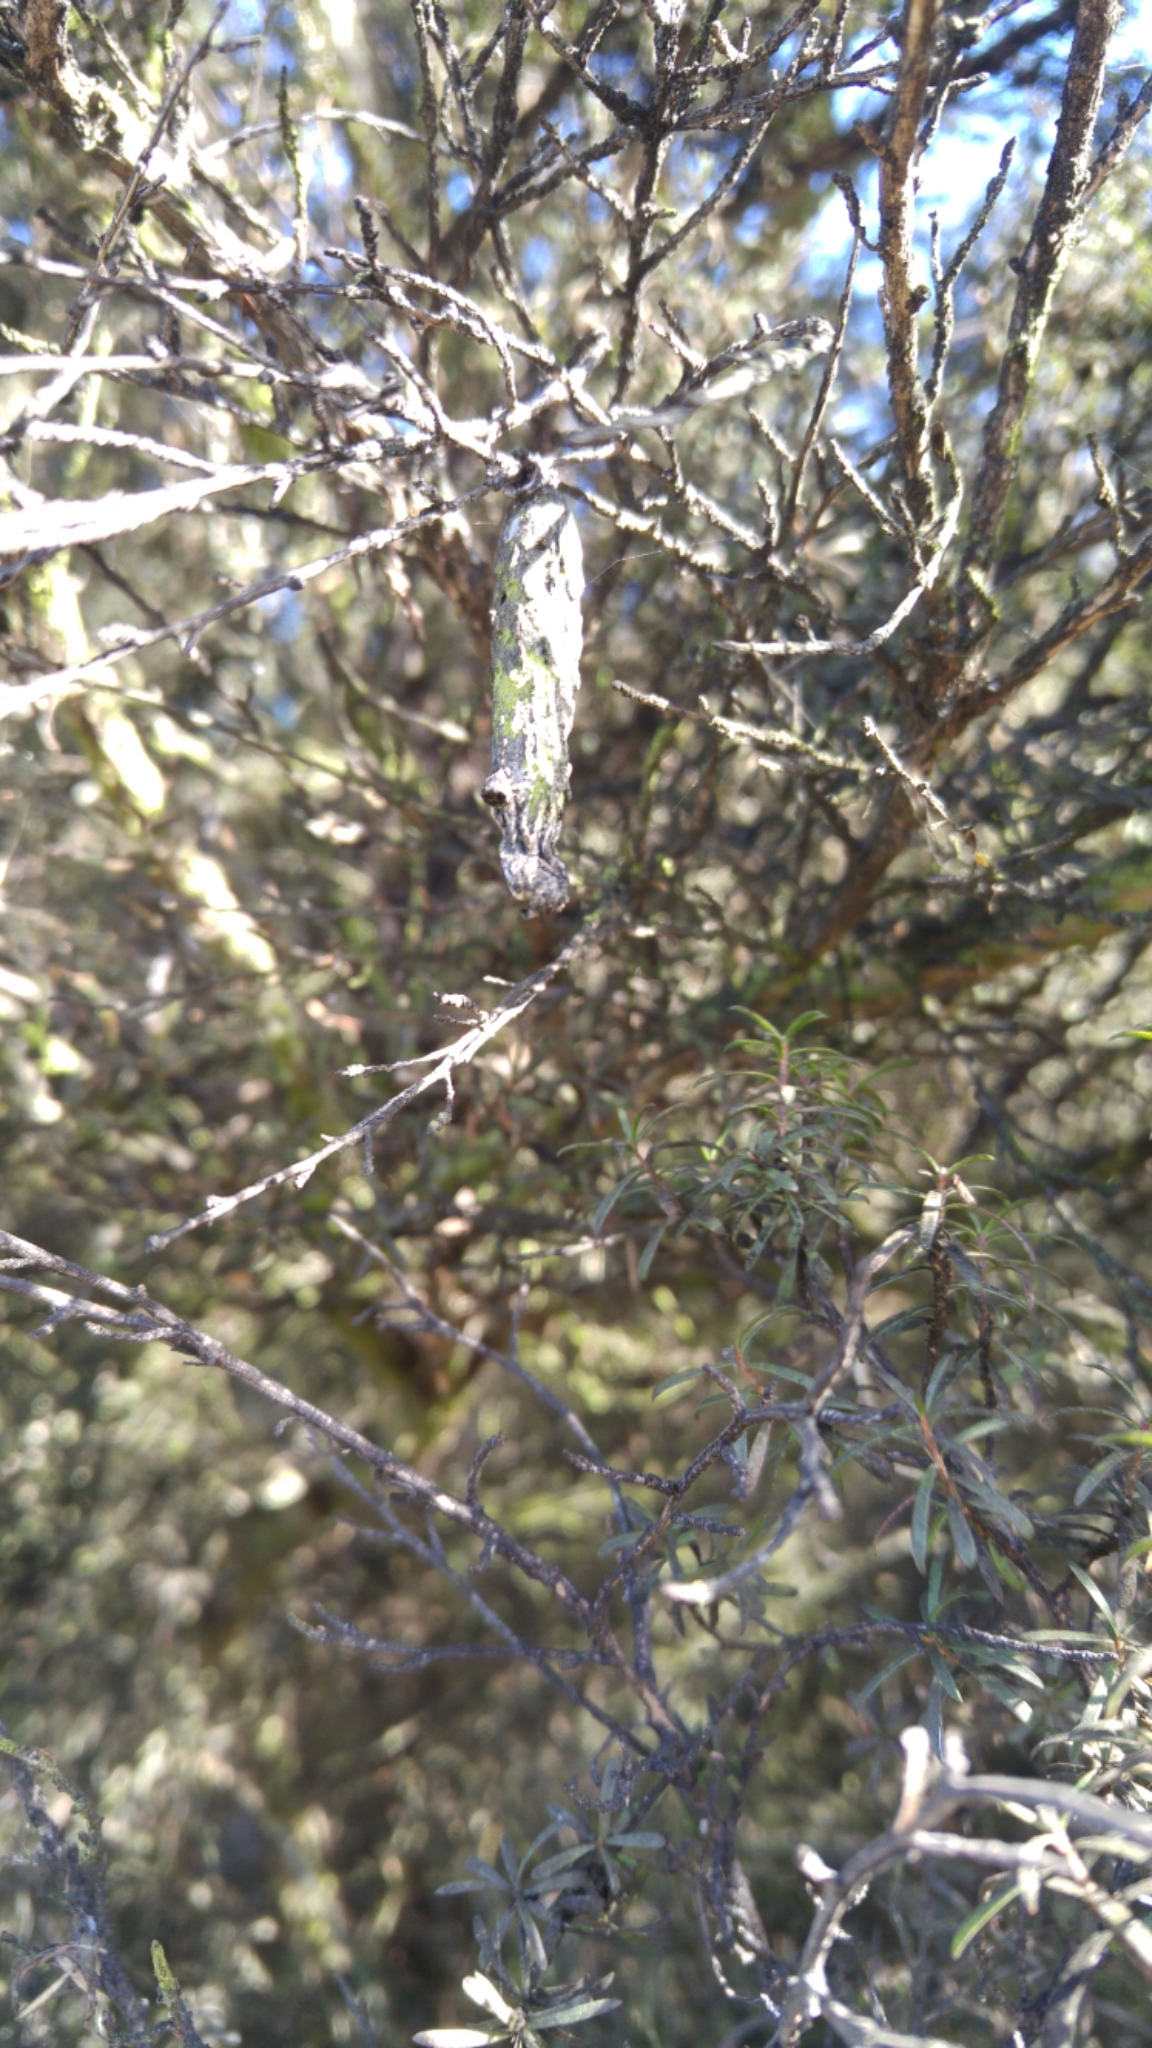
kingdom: Animalia
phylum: Arthropoda
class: Insecta
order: Lepidoptera
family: Psychidae
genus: Liothula
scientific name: Liothula omnivora
